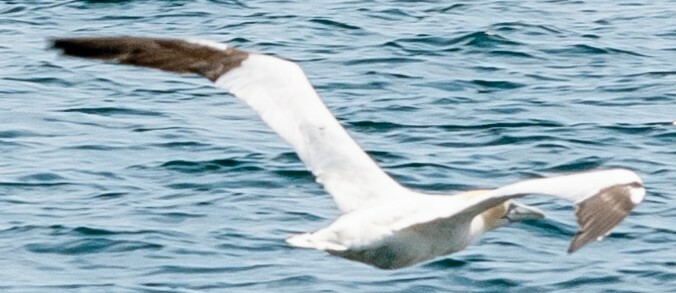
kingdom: Animalia
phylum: Chordata
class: Aves
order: Suliformes
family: Sulidae
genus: Morus
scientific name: Morus bassanus
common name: Northern gannet
